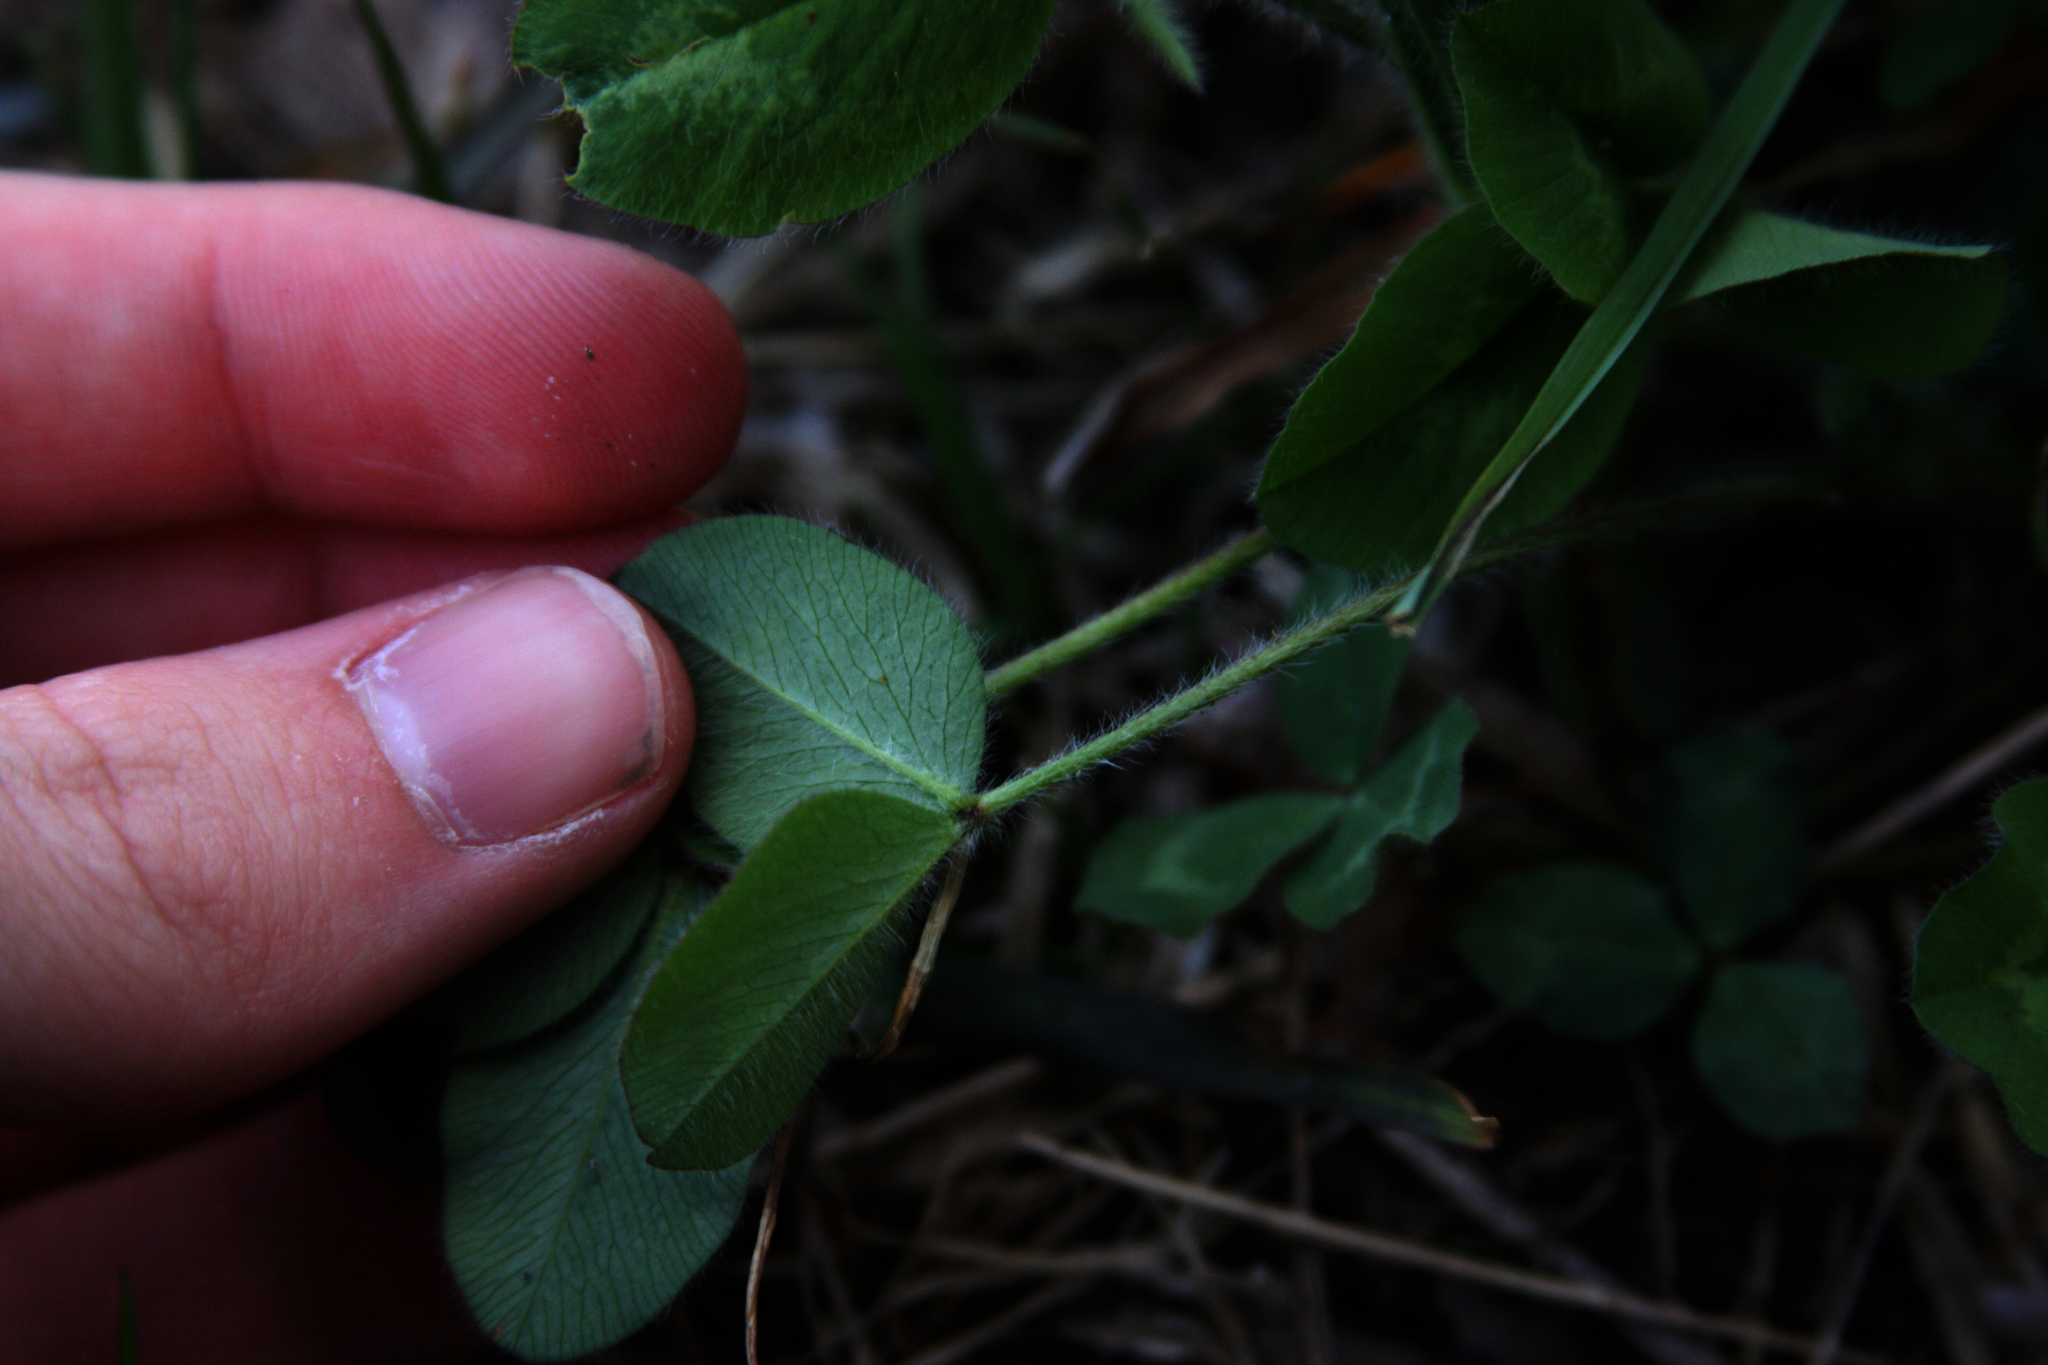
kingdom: Plantae
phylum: Tracheophyta
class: Magnoliopsida
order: Fabales
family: Fabaceae
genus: Trifolium
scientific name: Trifolium pratense
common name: Red clover
